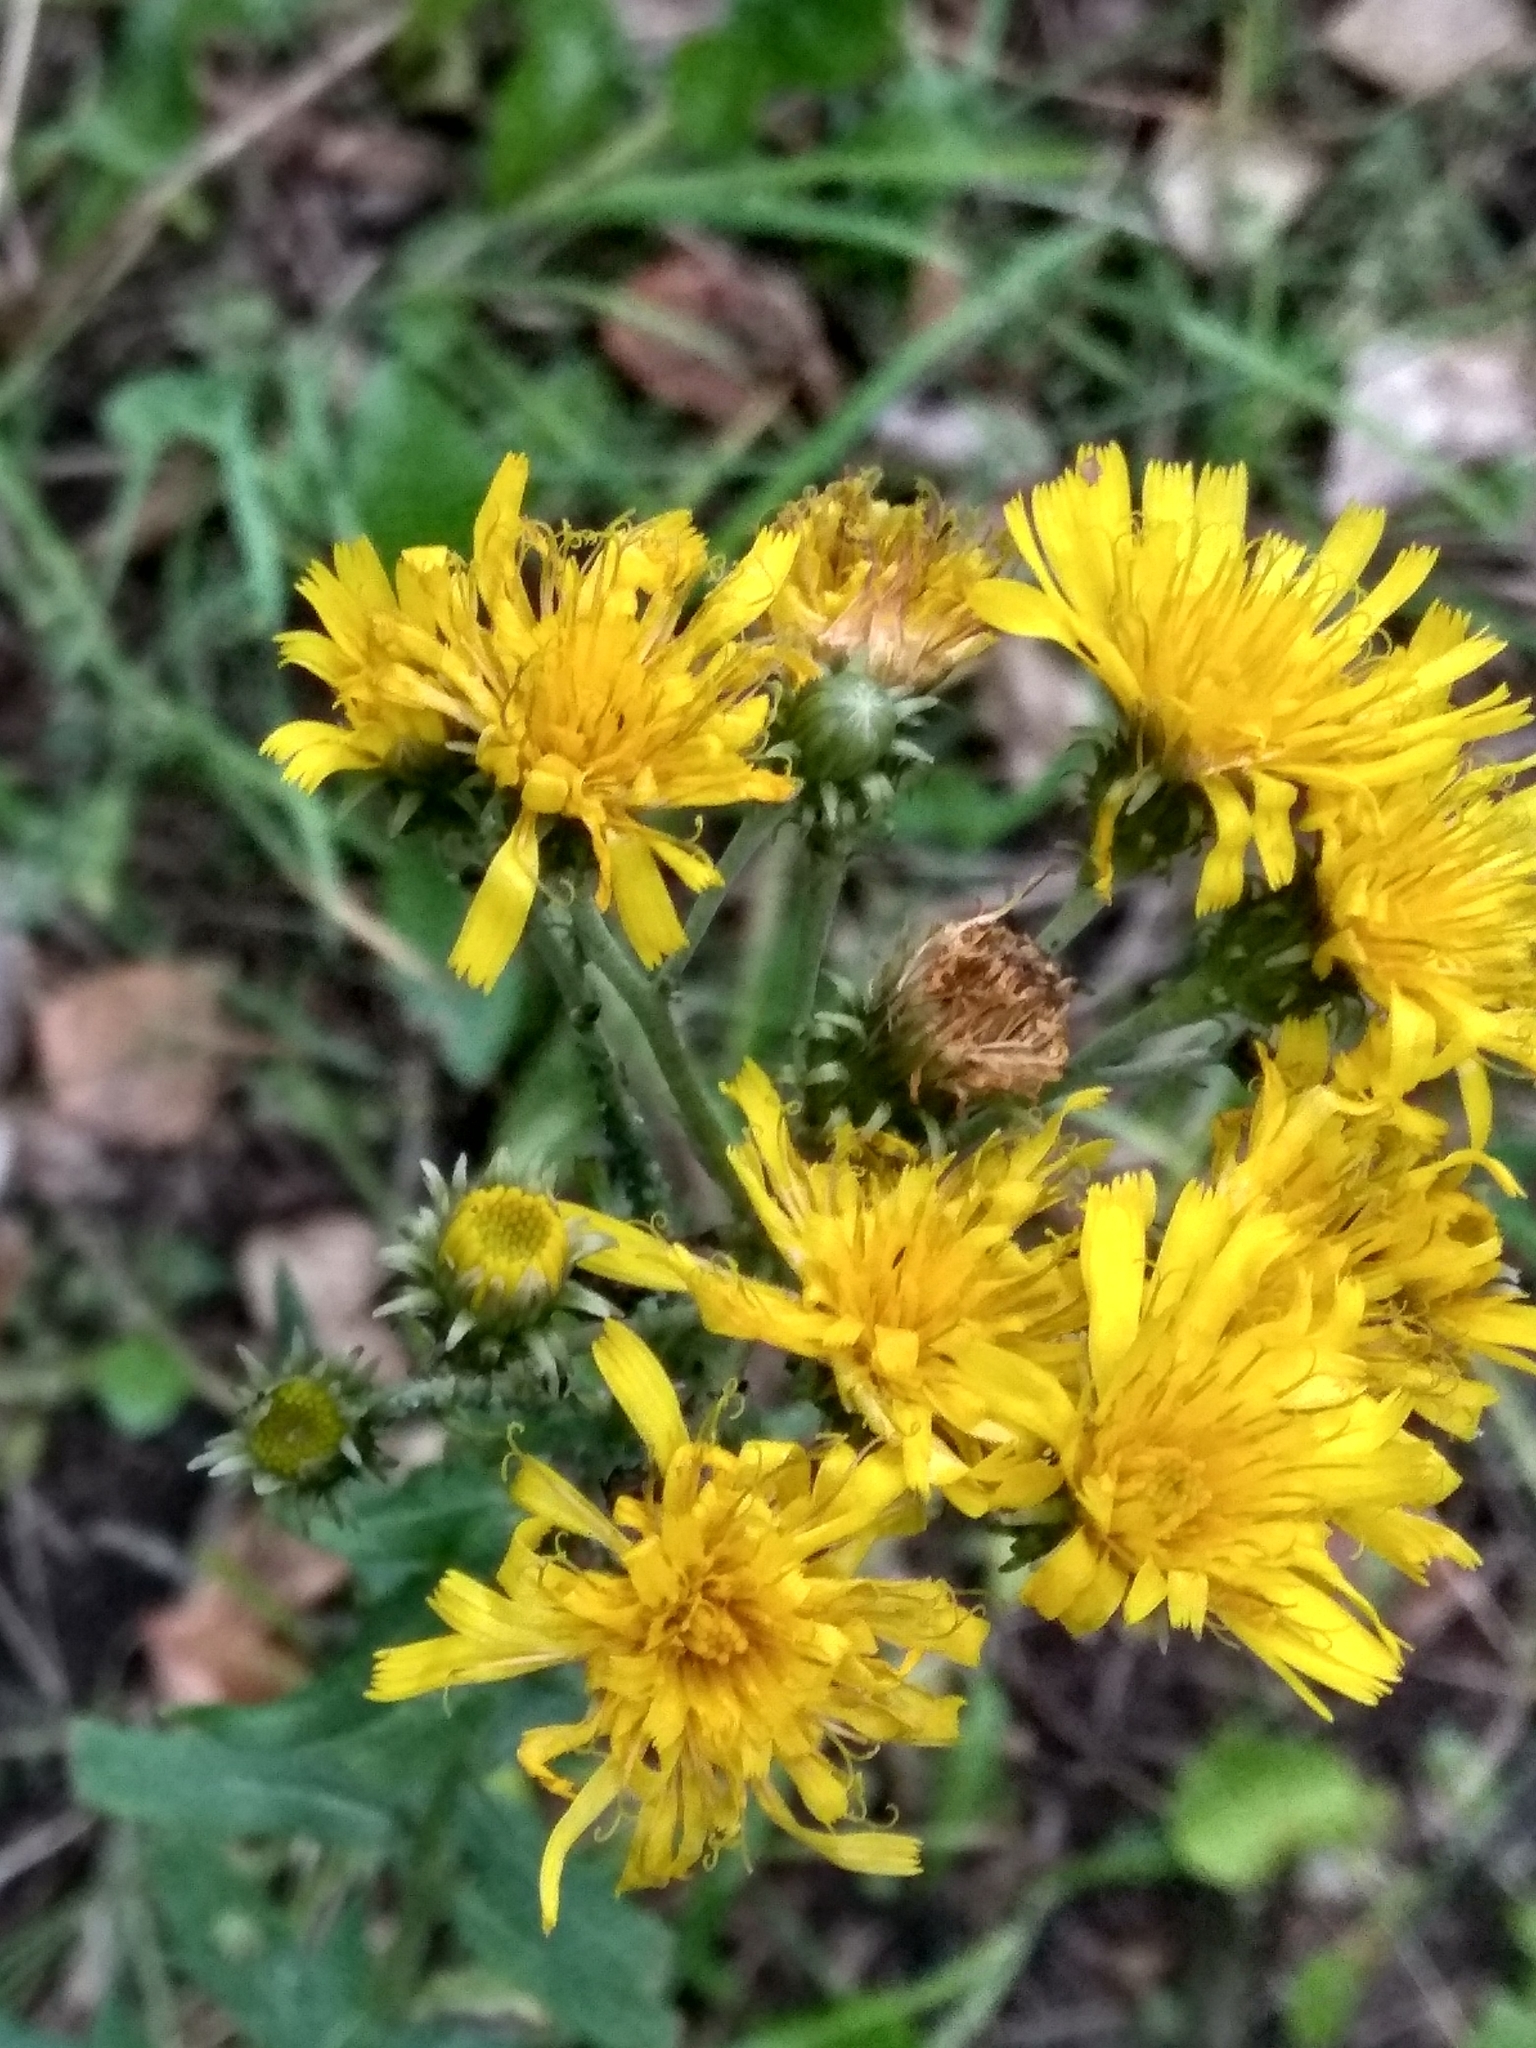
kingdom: Plantae
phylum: Tracheophyta
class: Magnoliopsida
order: Asterales
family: Asteraceae
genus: Hieracium
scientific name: Hieracium umbellatum
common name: Northern hawkweed
